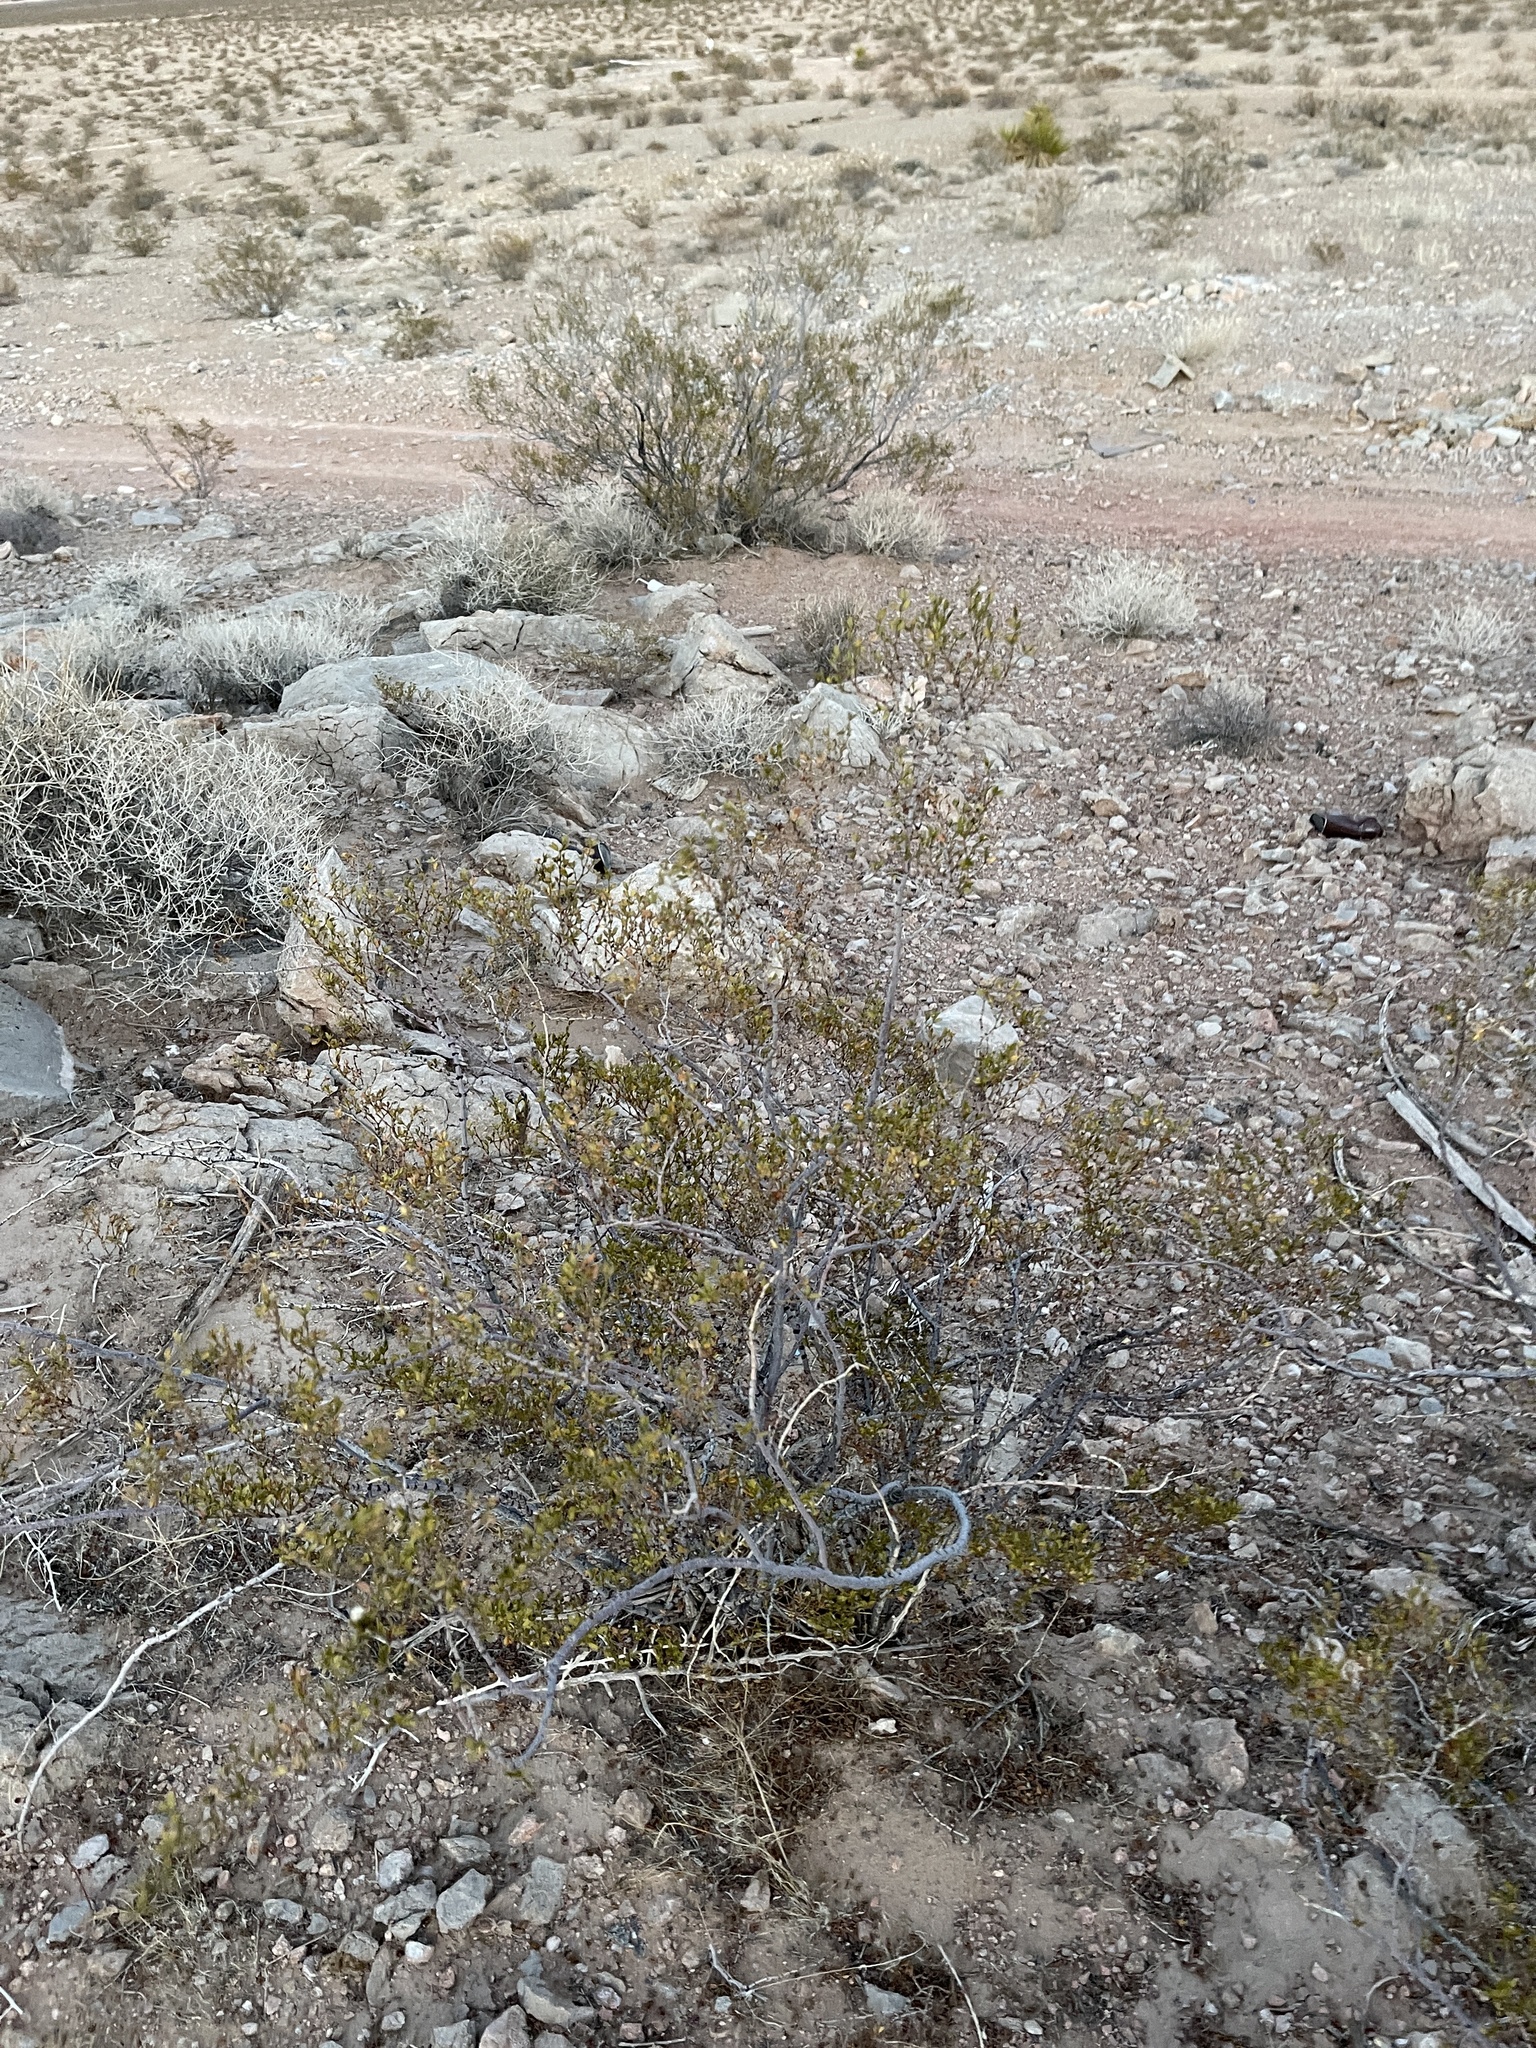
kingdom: Plantae
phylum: Tracheophyta
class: Magnoliopsida
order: Zygophyllales
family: Zygophyllaceae
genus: Larrea
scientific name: Larrea tridentata
